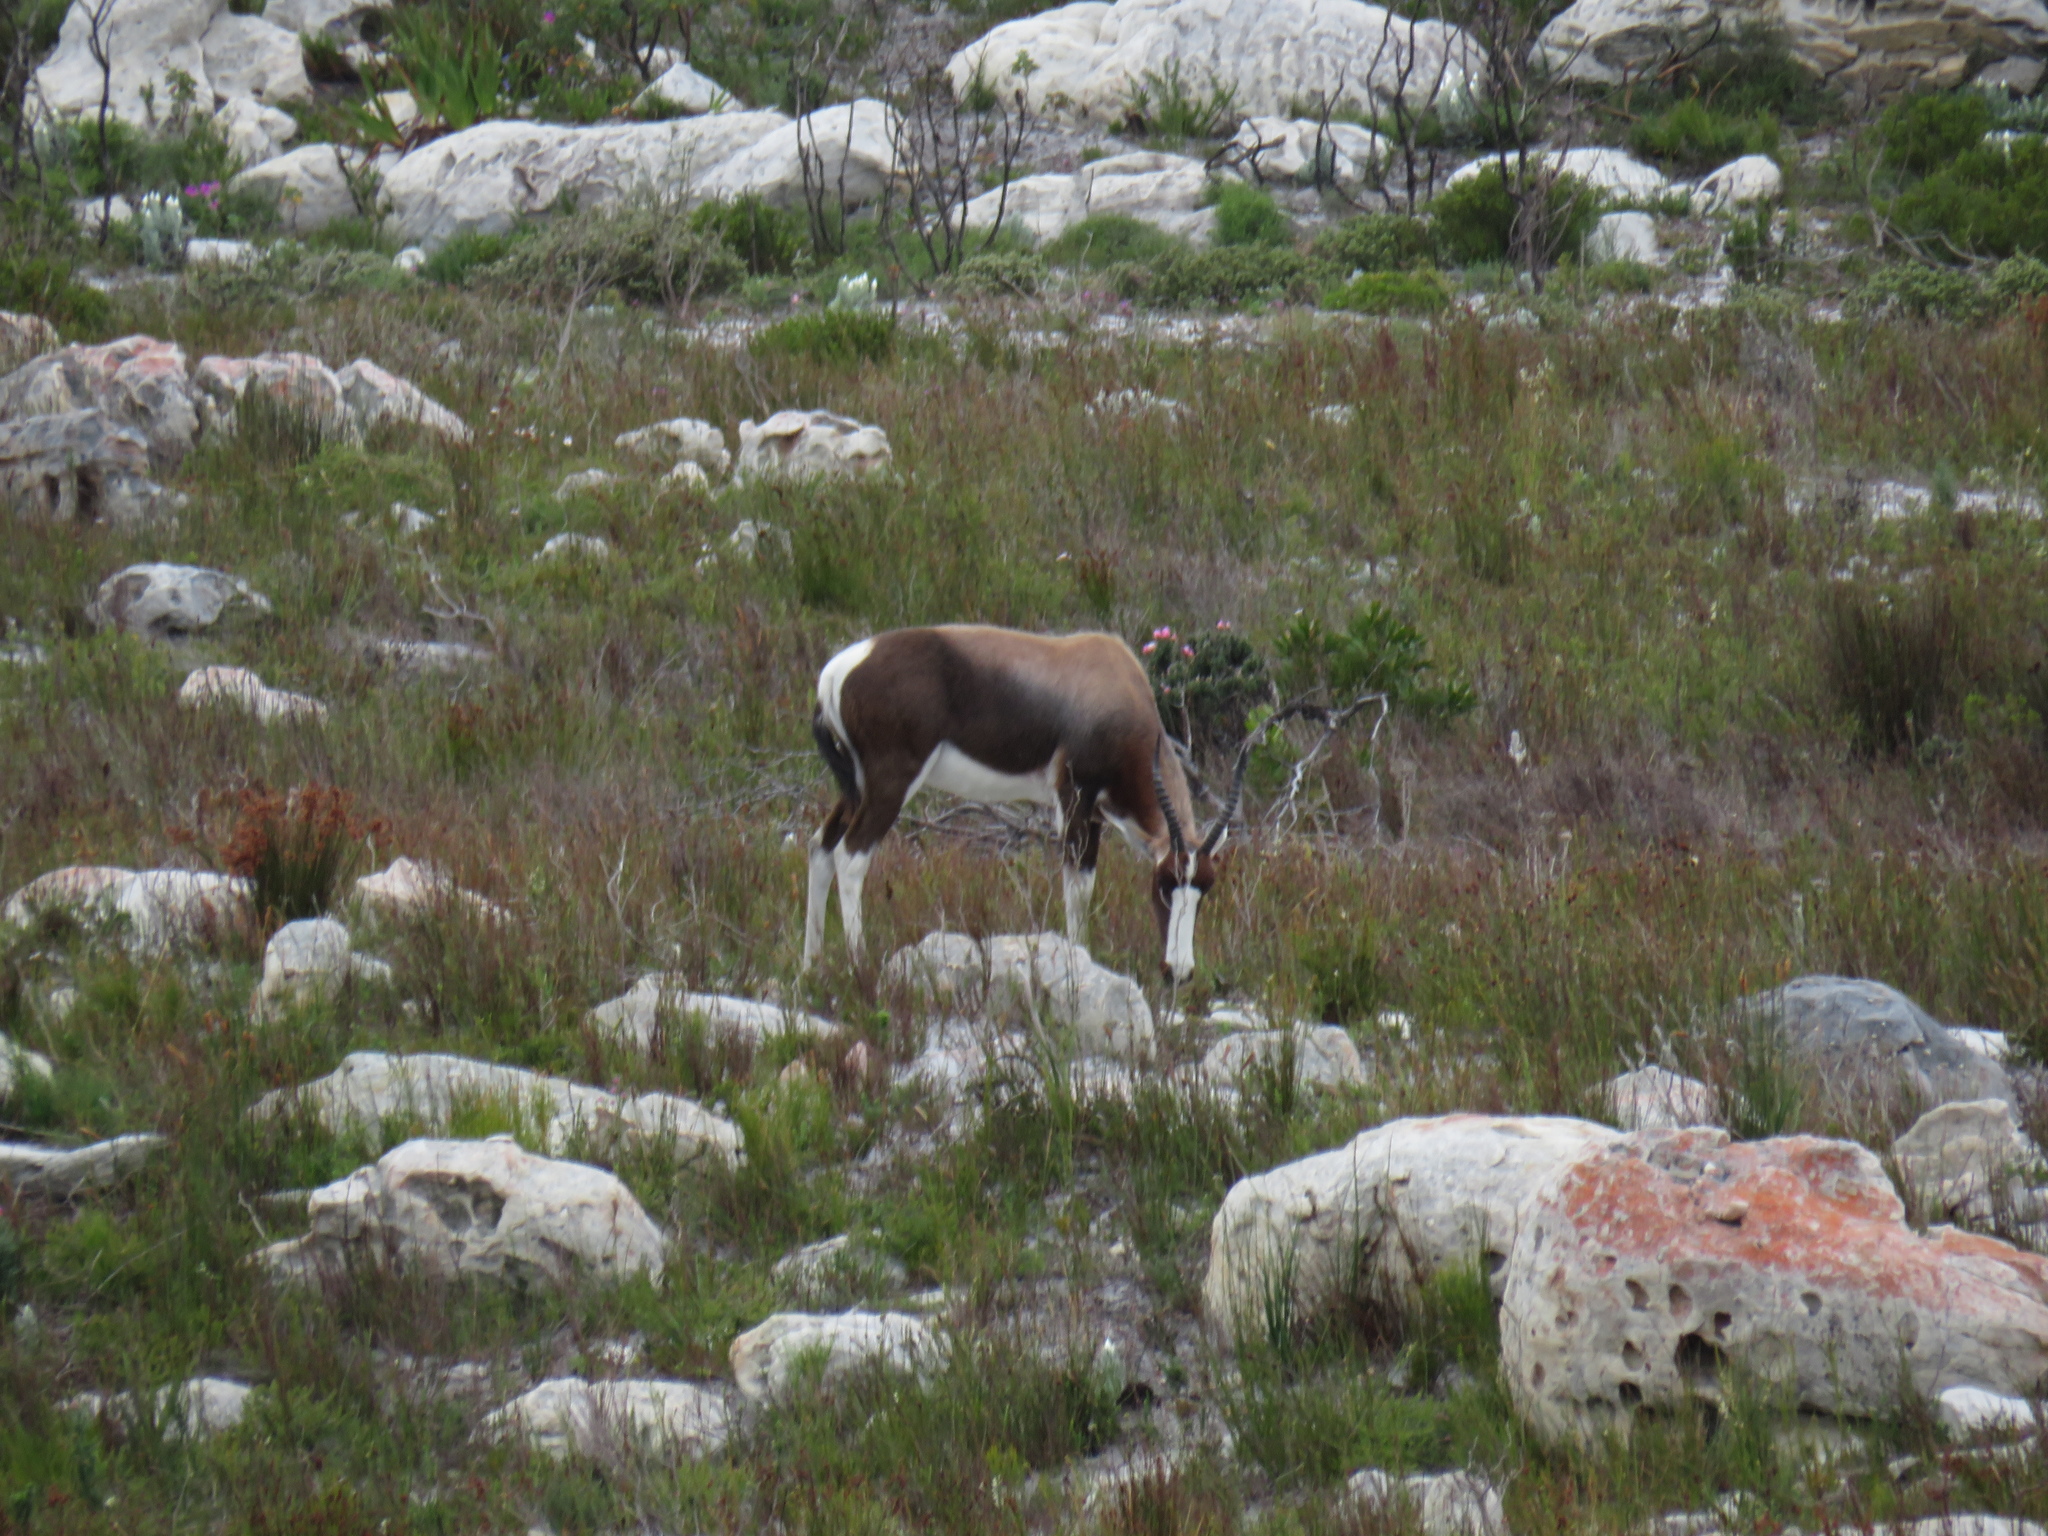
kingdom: Animalia
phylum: Chordata
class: Mammalia
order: Artiodactyla
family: Bovidae
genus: Damaliscus
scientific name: Damaliscus pygargus
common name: Bontebok
